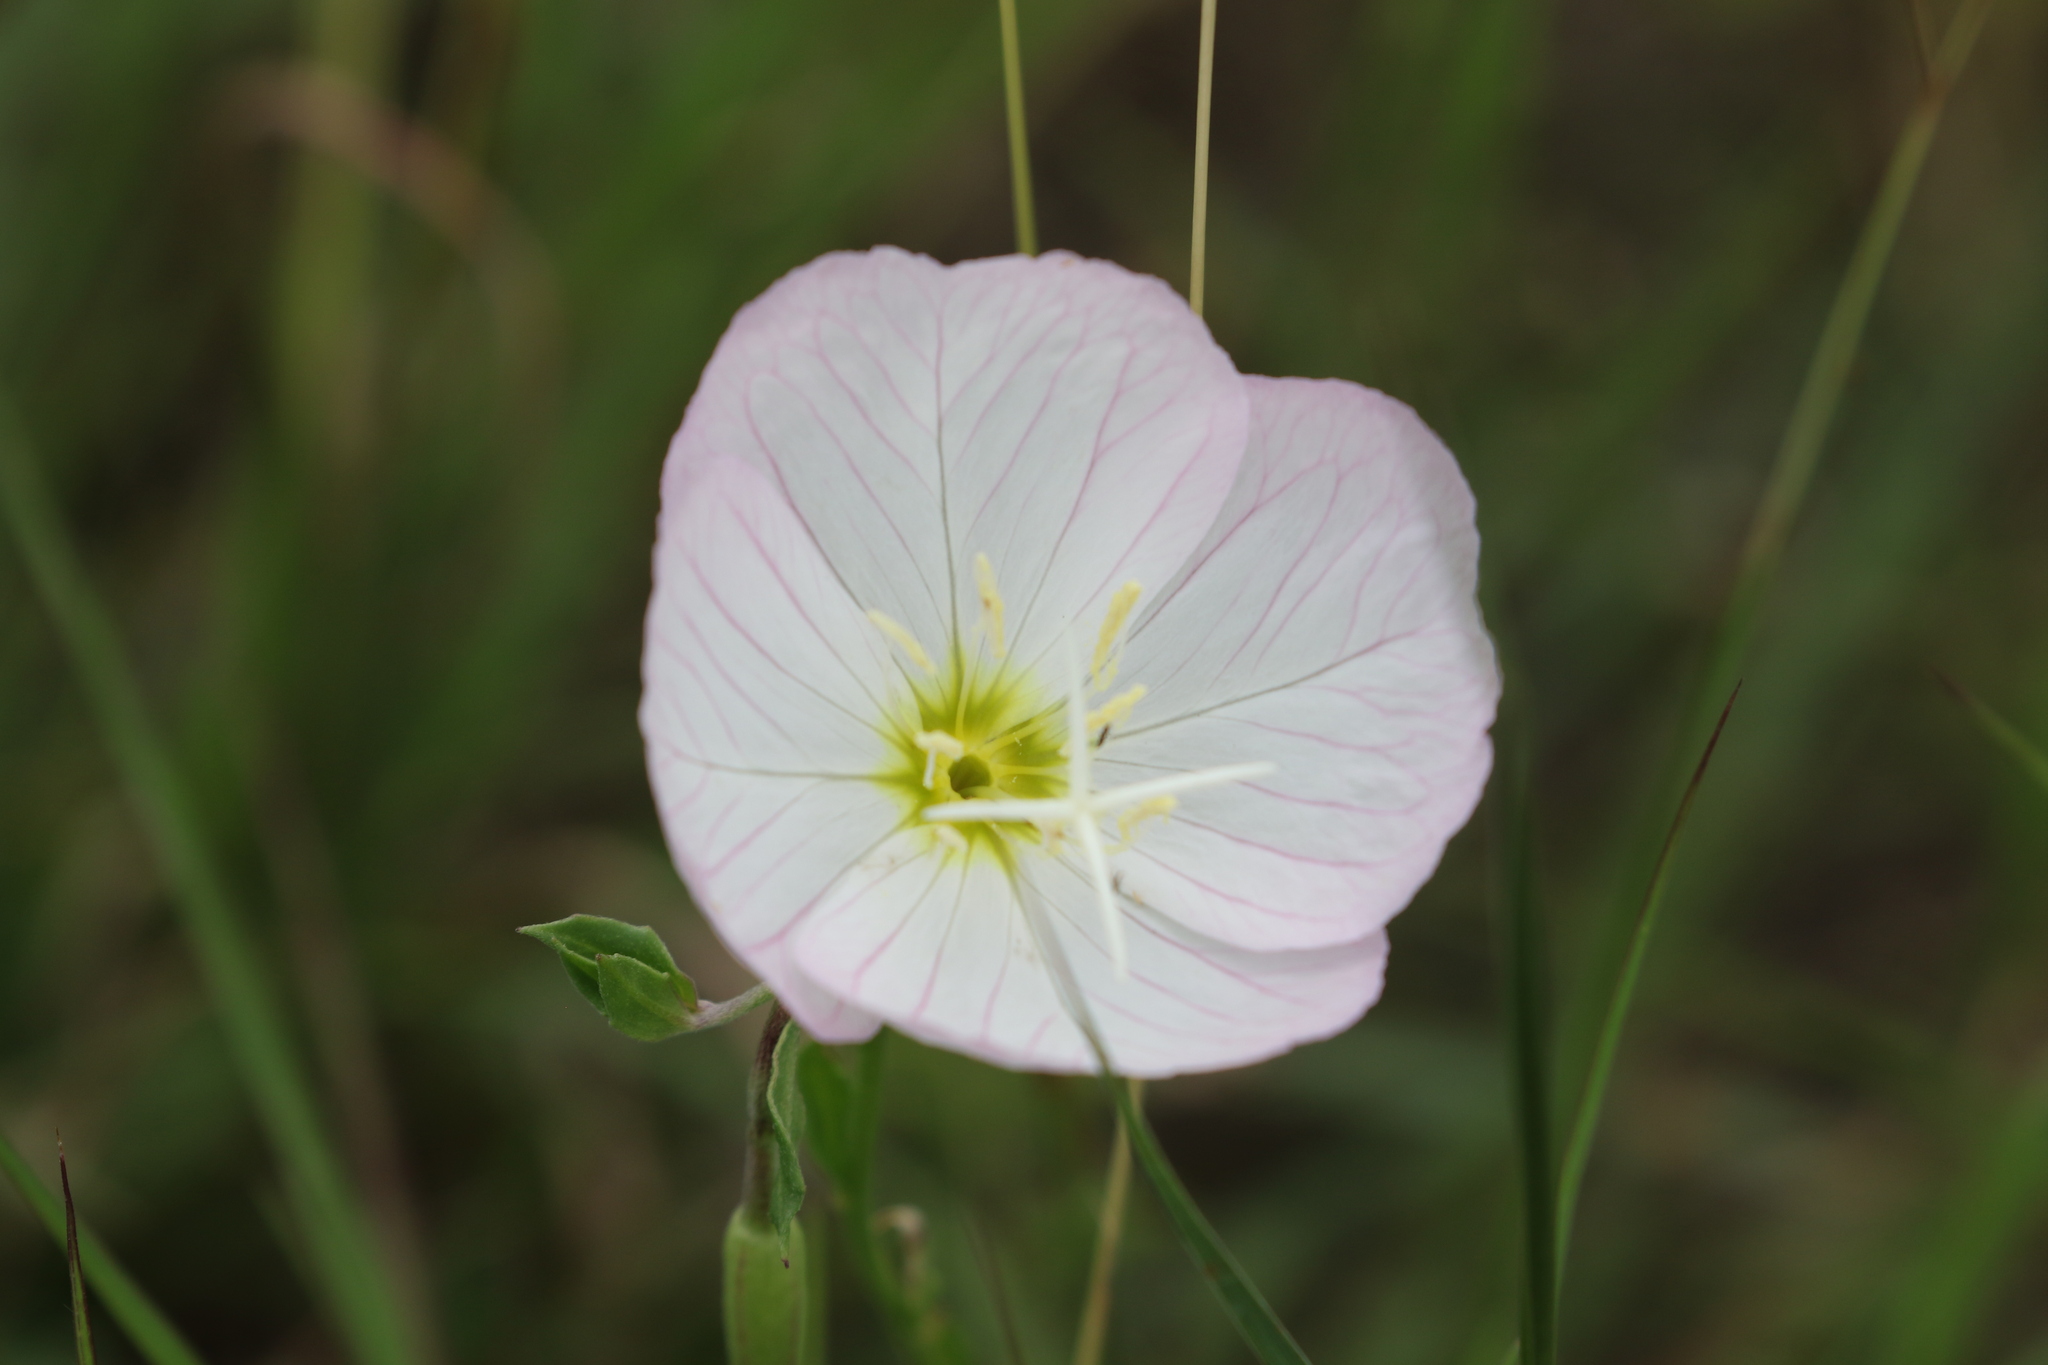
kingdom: Plantae
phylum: Tracheophyta
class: Magnoliopsida
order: Myrtales
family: Onagraceae
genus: Oenothera
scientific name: Oenothera speciosa
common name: White evening-primrose
